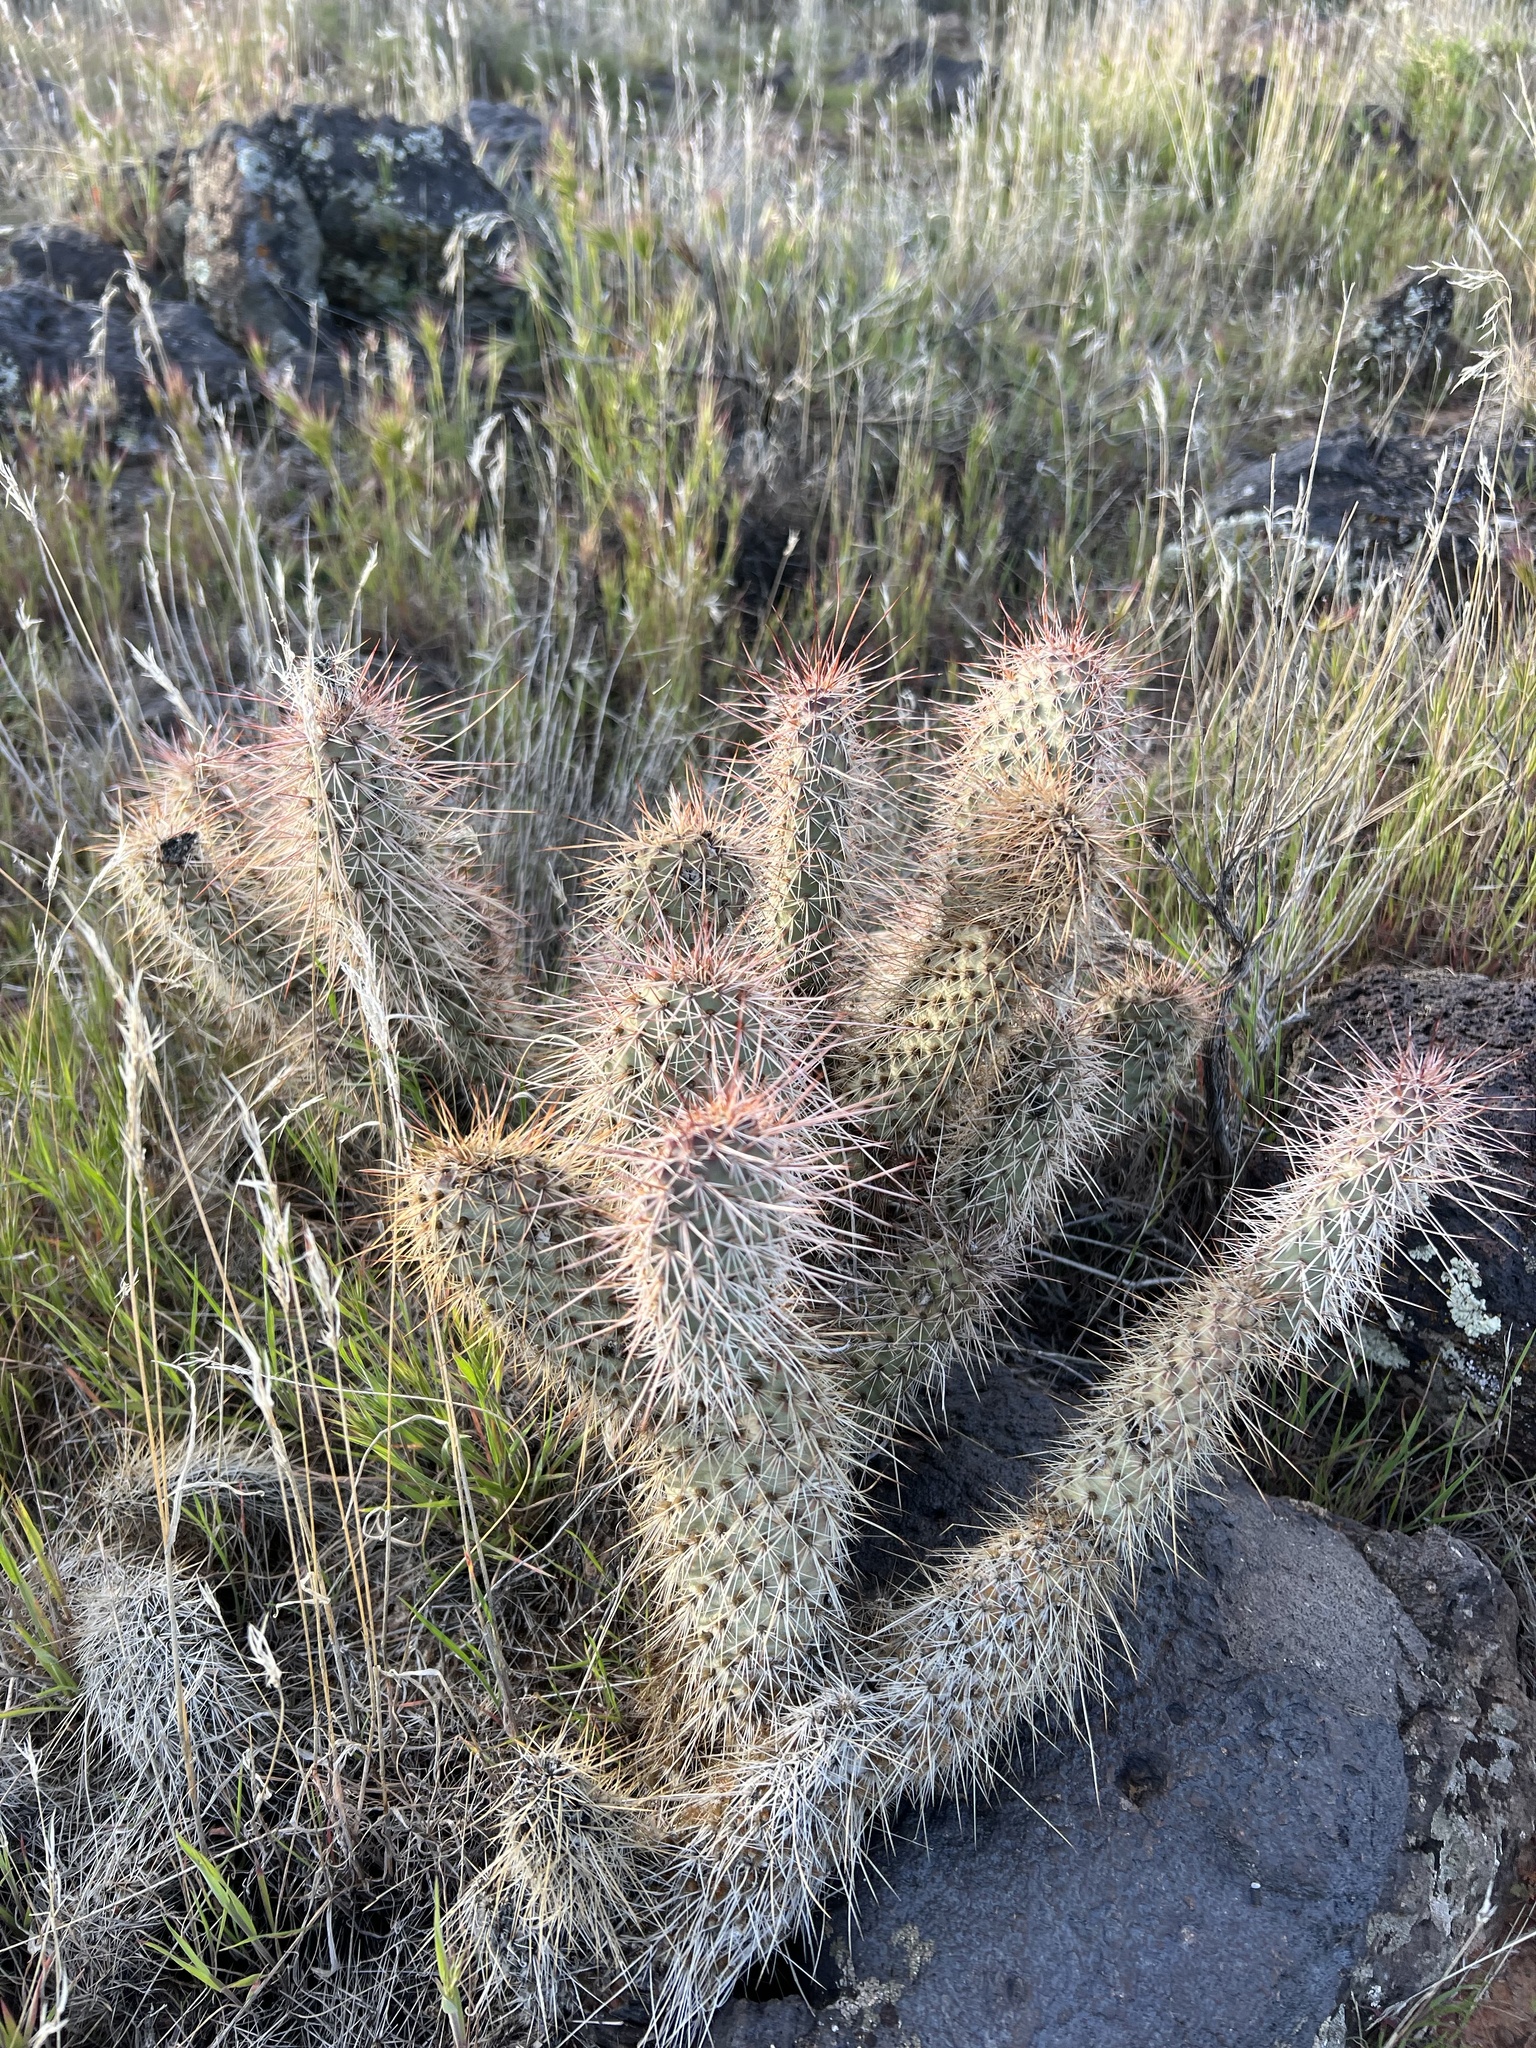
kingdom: Plantae
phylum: Tracheophyta
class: Magnoliopsida
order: Caryophyllales
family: Cactaceae
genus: Opuntia
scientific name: Opuntia polyacantha
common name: Plains prickly-pear
